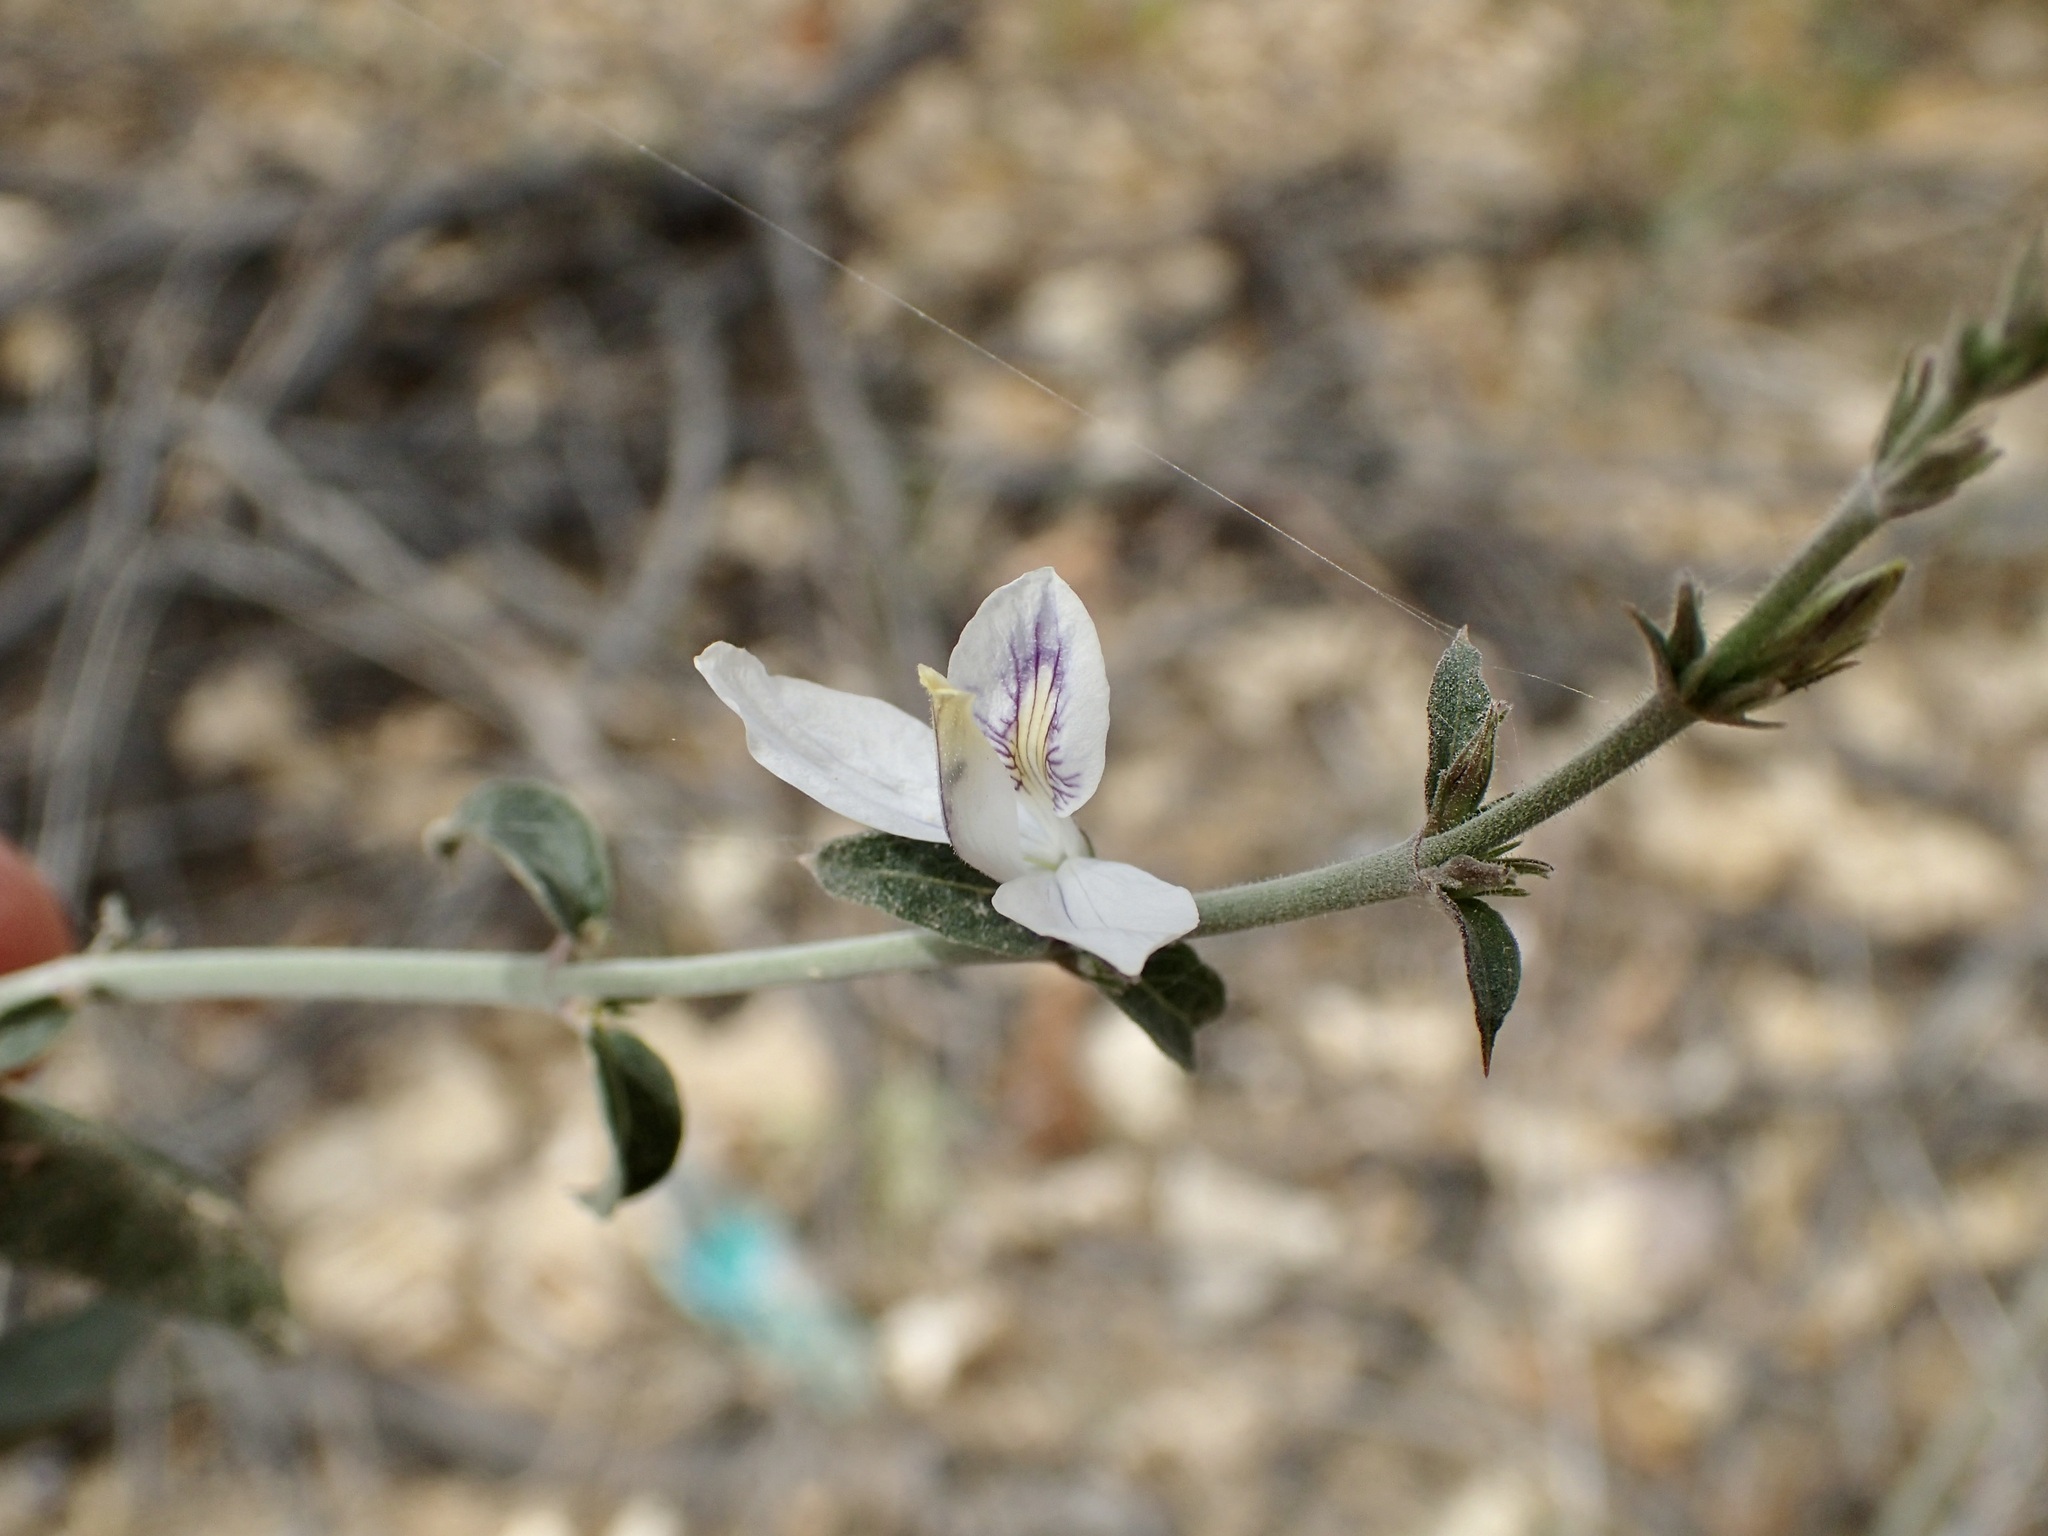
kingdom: Plantae
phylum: Tracheophyta
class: Magnoliopsida
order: Lamiales
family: Acanthaceae
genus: Carlowrightia
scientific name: Carlowrightia arizonica
